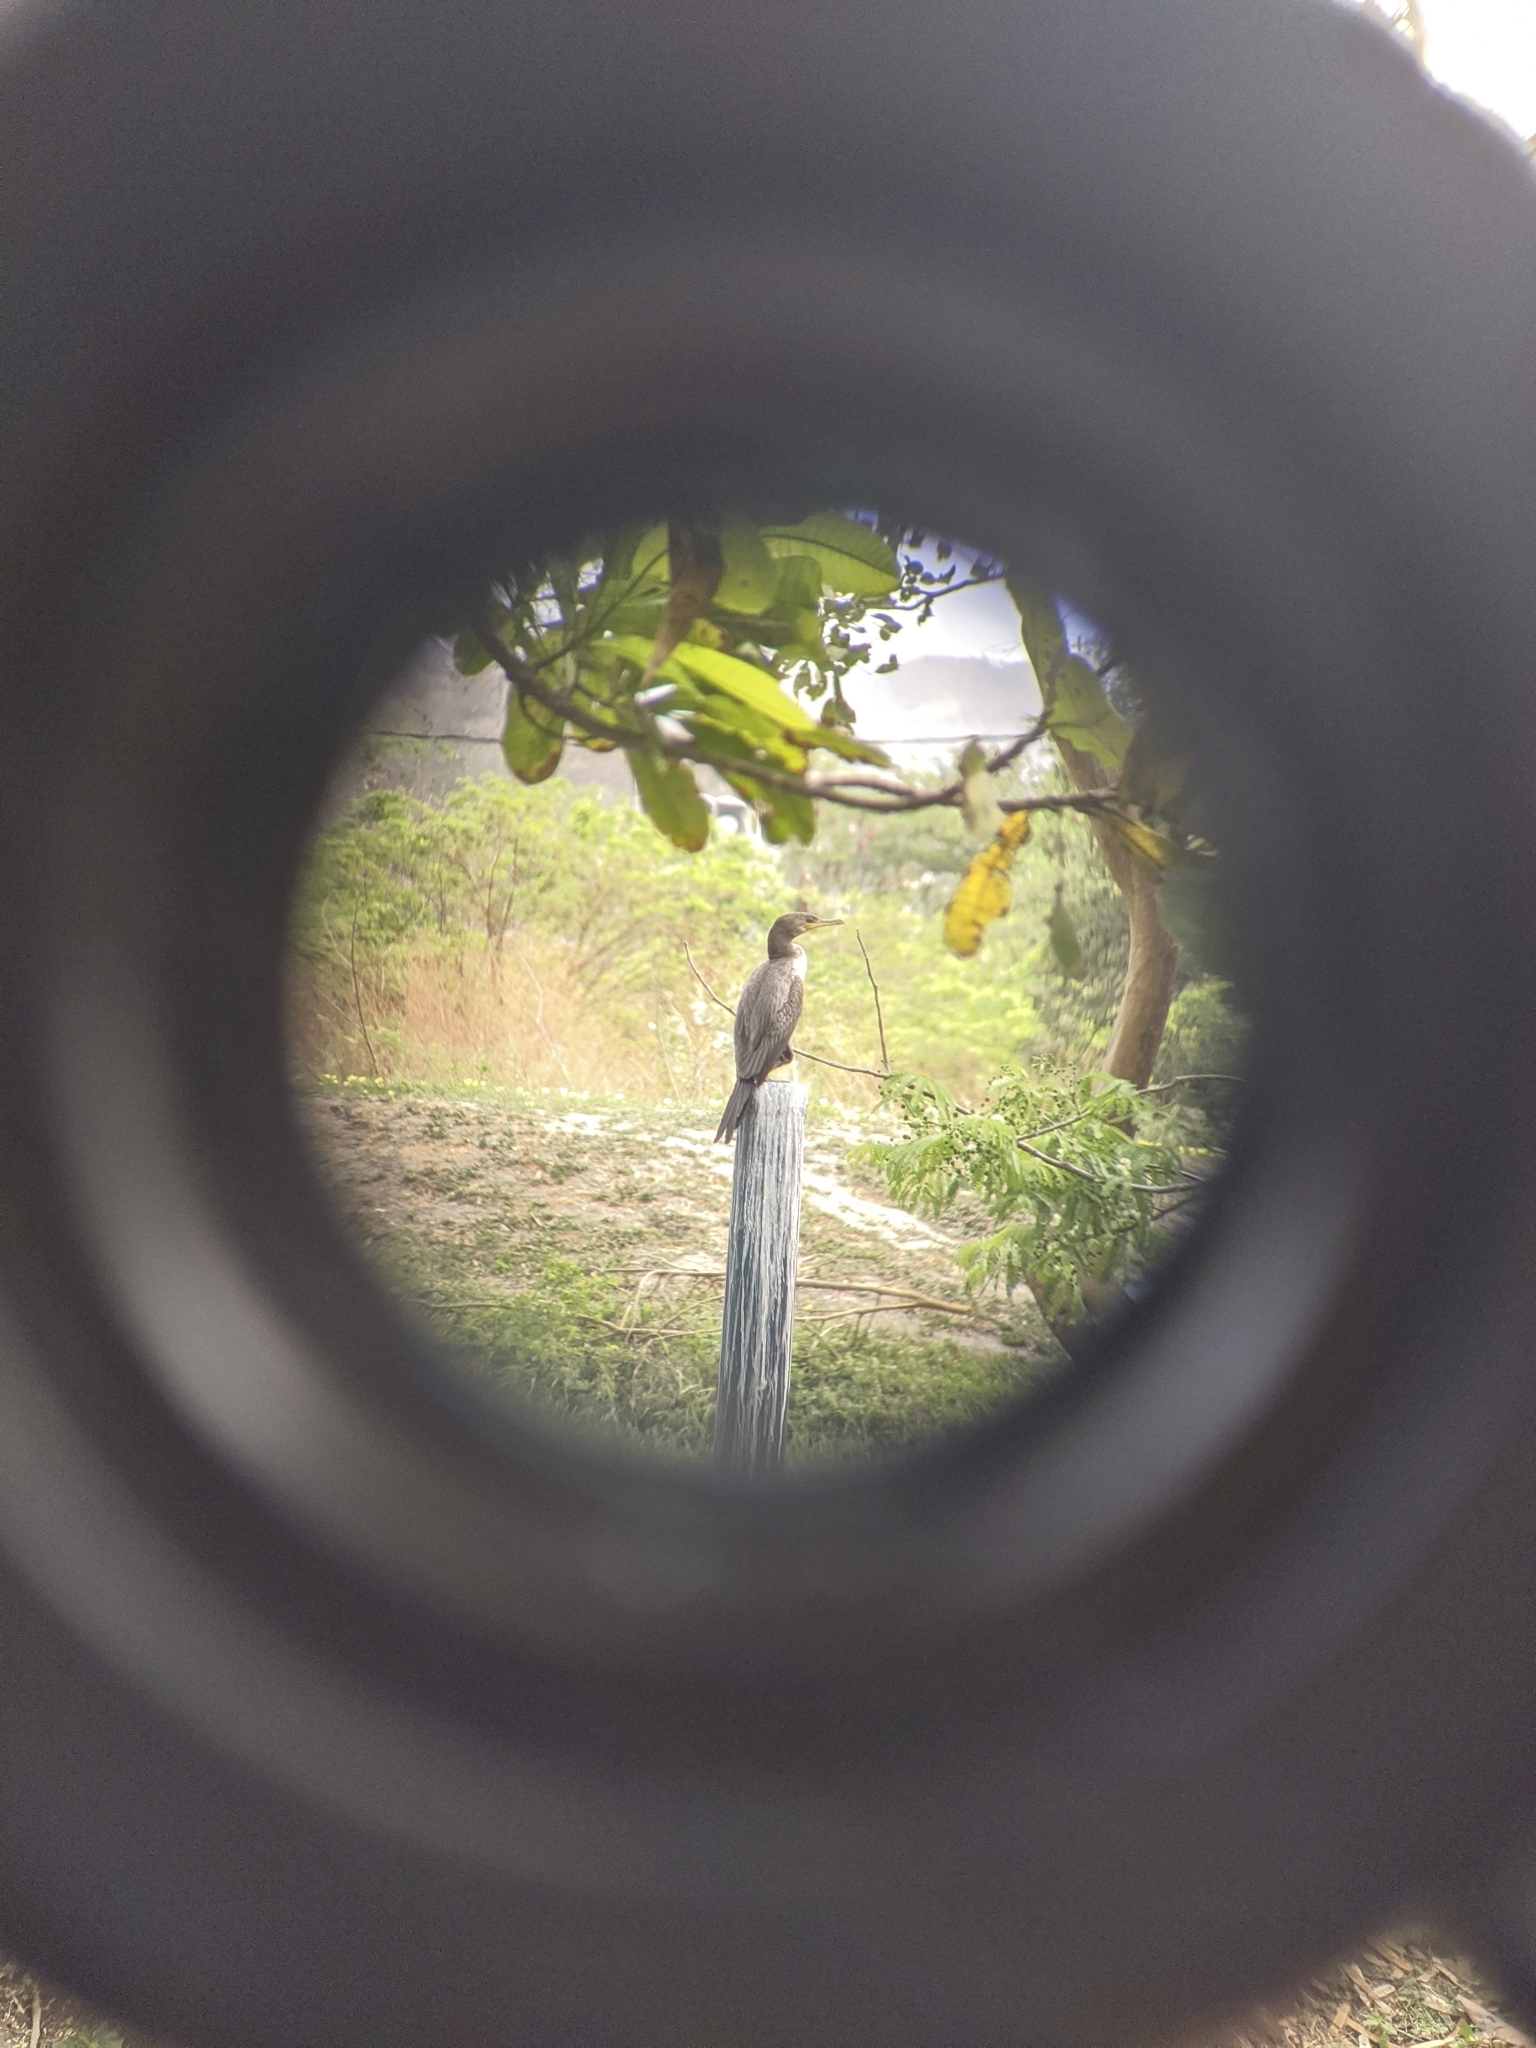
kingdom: Animalia
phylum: Chordata
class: Aves
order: Suliformes
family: Phalacrocoracidae
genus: Phalacrocorax
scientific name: Phalacrocorax brasilianus
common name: Neotropic cormorant
